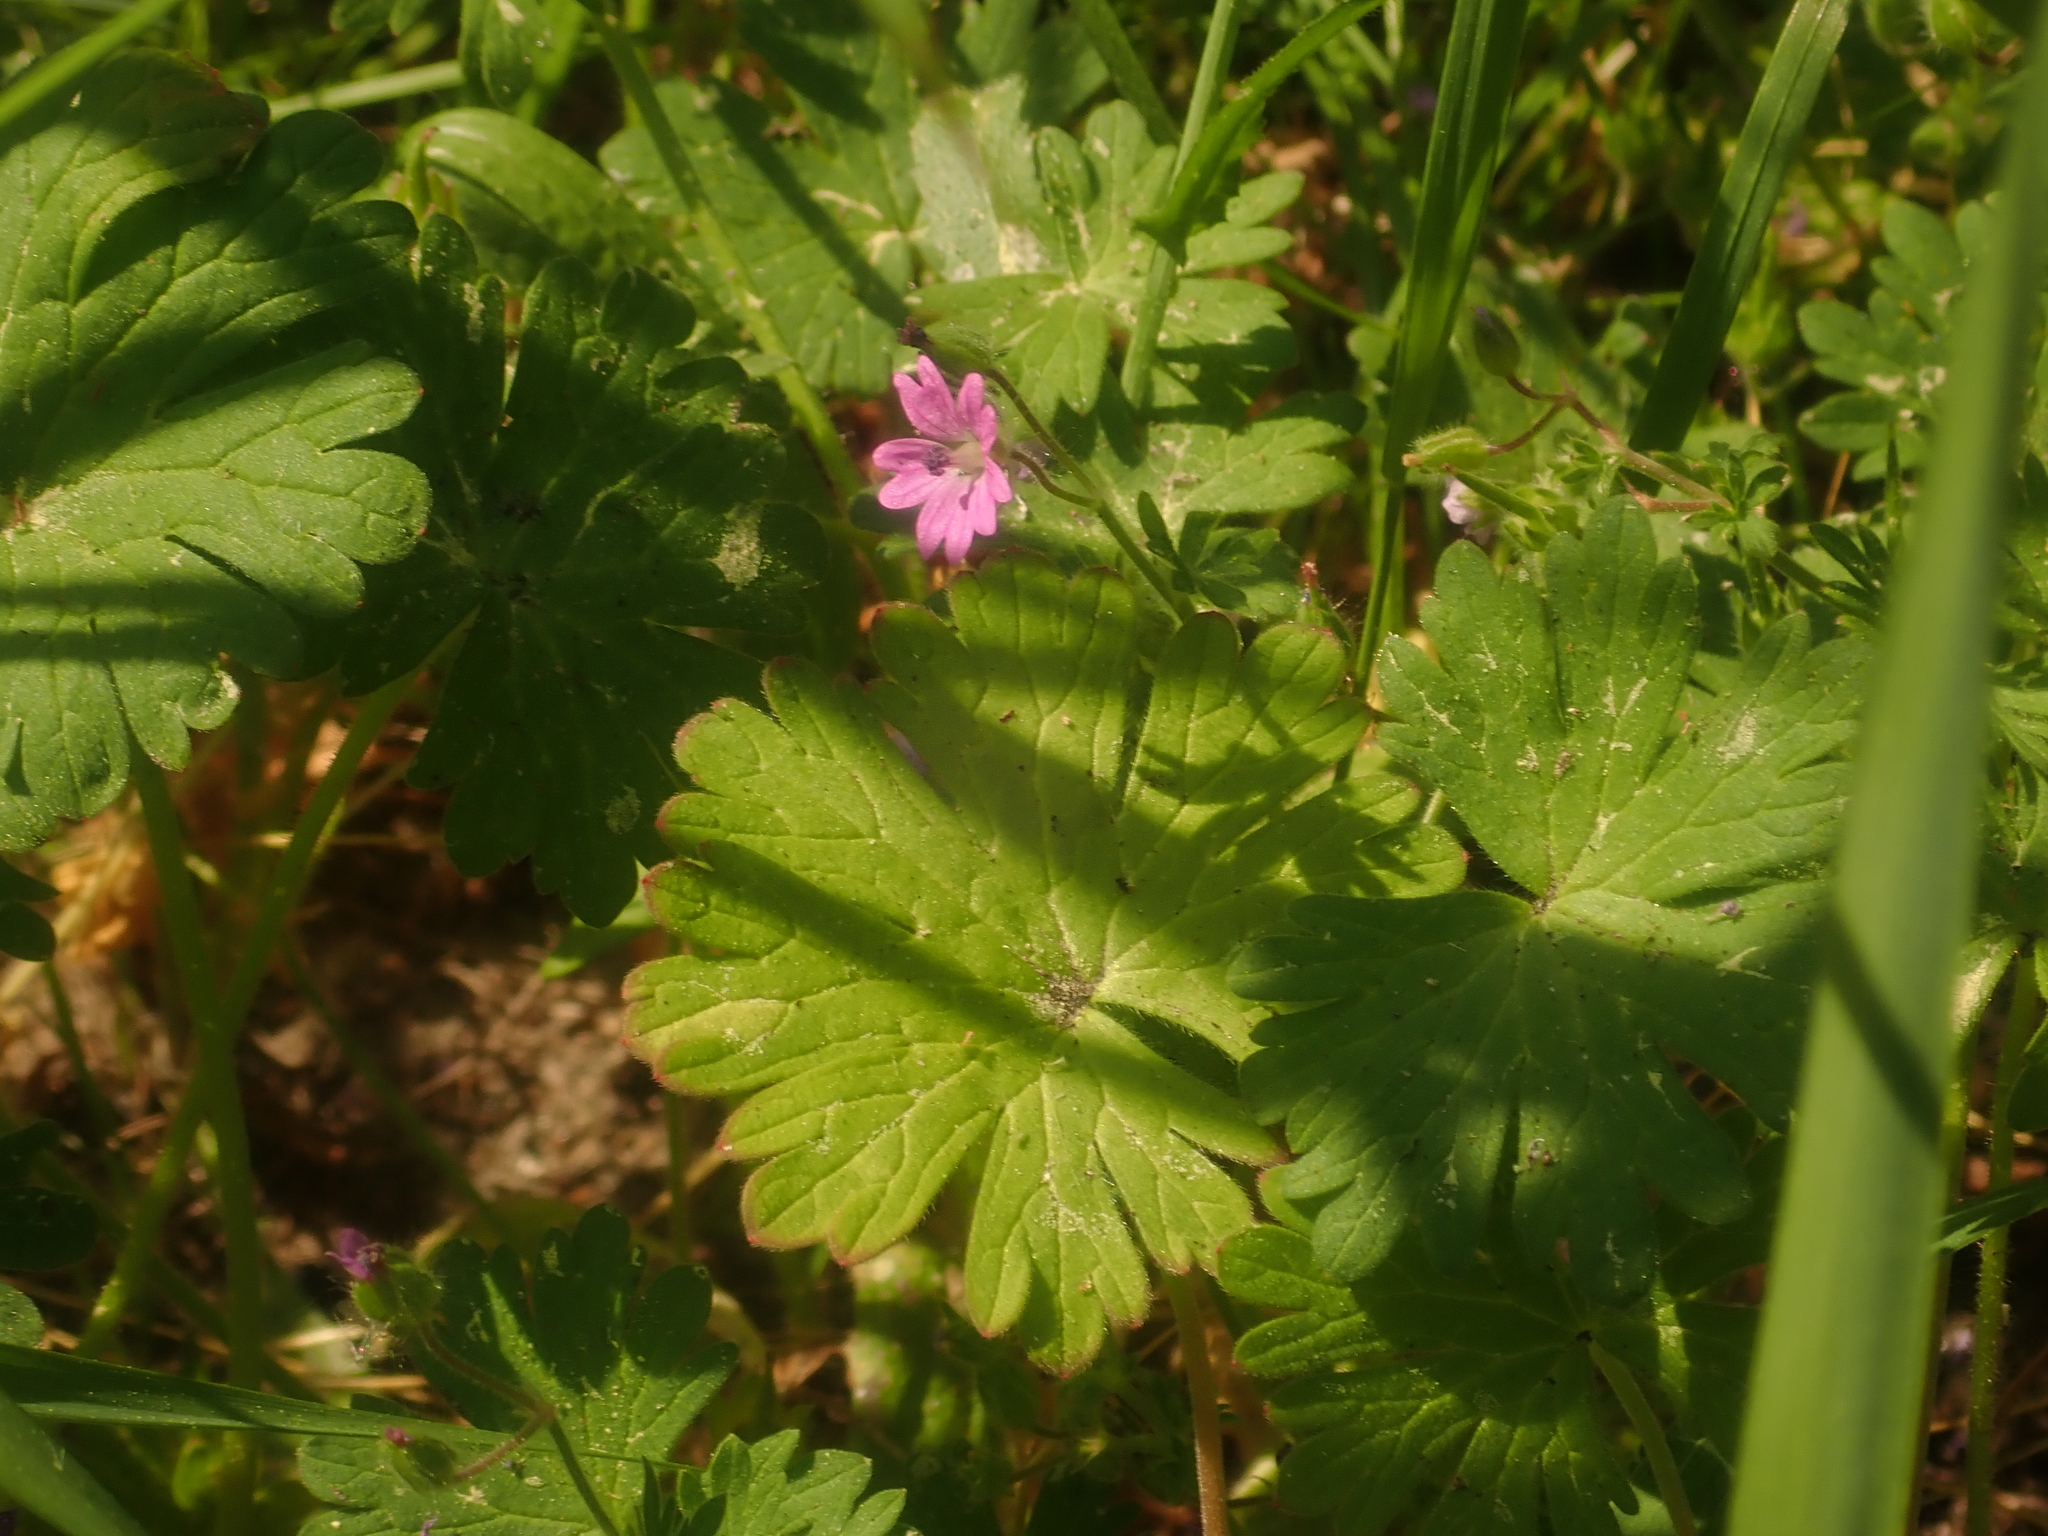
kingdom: Plantae
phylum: Tracheophyta
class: Magnoliopsida
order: Geraniales
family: Geraniaceae
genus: Geranium
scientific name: Geranium molle
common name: Dove's-foot crane's-bill
